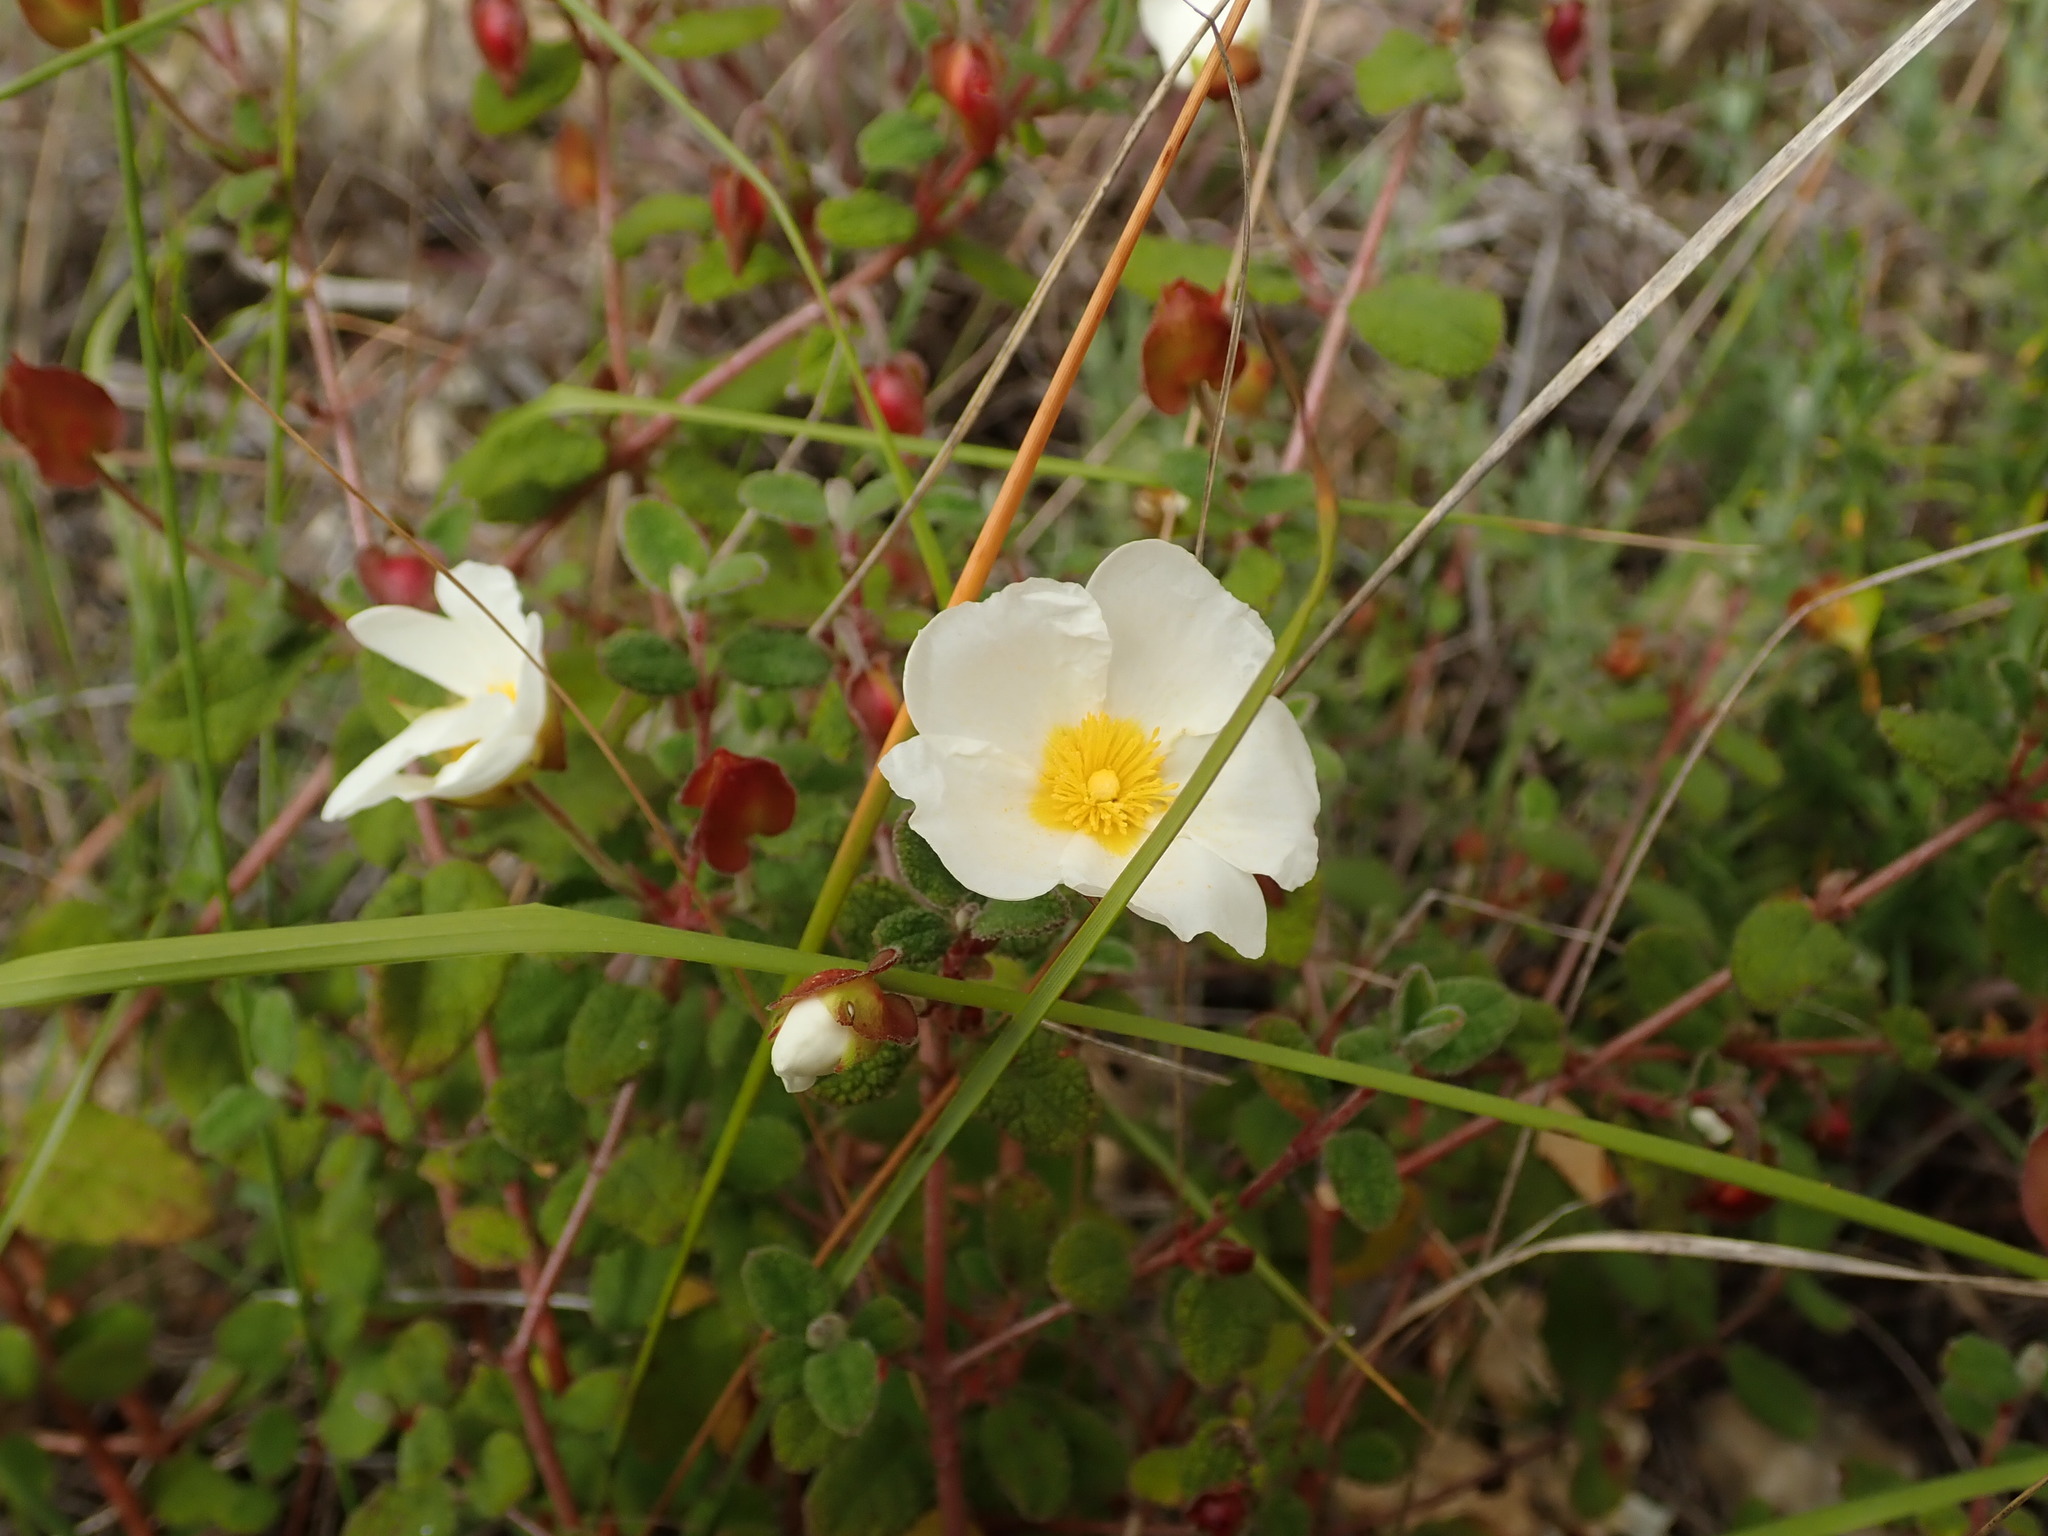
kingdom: Plantae
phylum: Tracheophyta
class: Magnoliopsida
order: Malvales
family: Cistaceae
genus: Cistus
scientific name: Cistus salviifolius
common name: Salvia cistus
